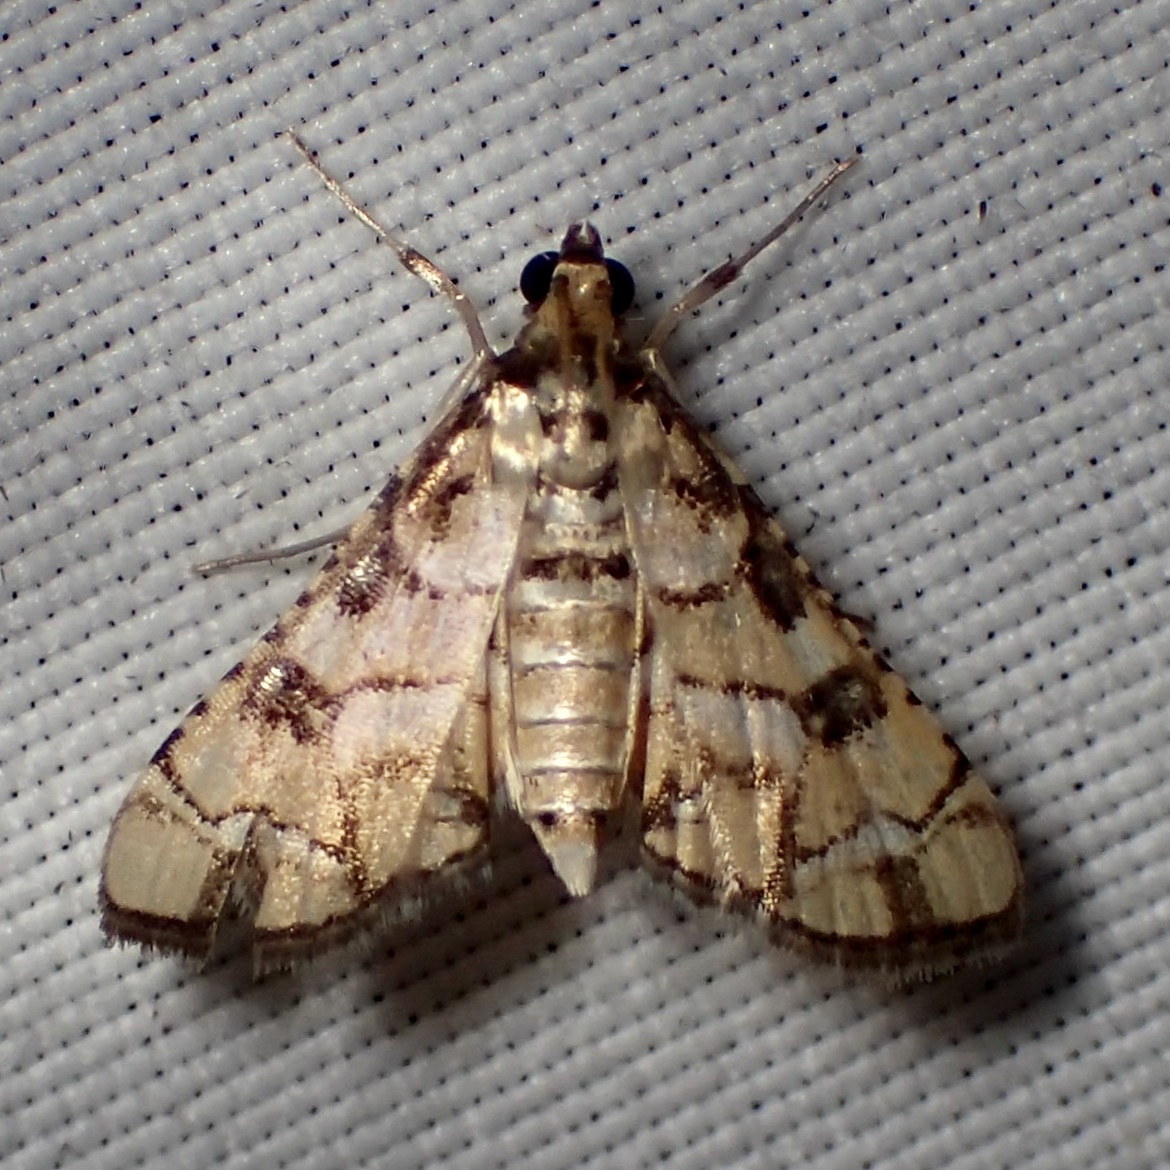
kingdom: Animalia
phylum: Arthropoda
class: Insecta
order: Lepidoptera
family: Crambidae
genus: Hileithia
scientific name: Hileithia magualis
